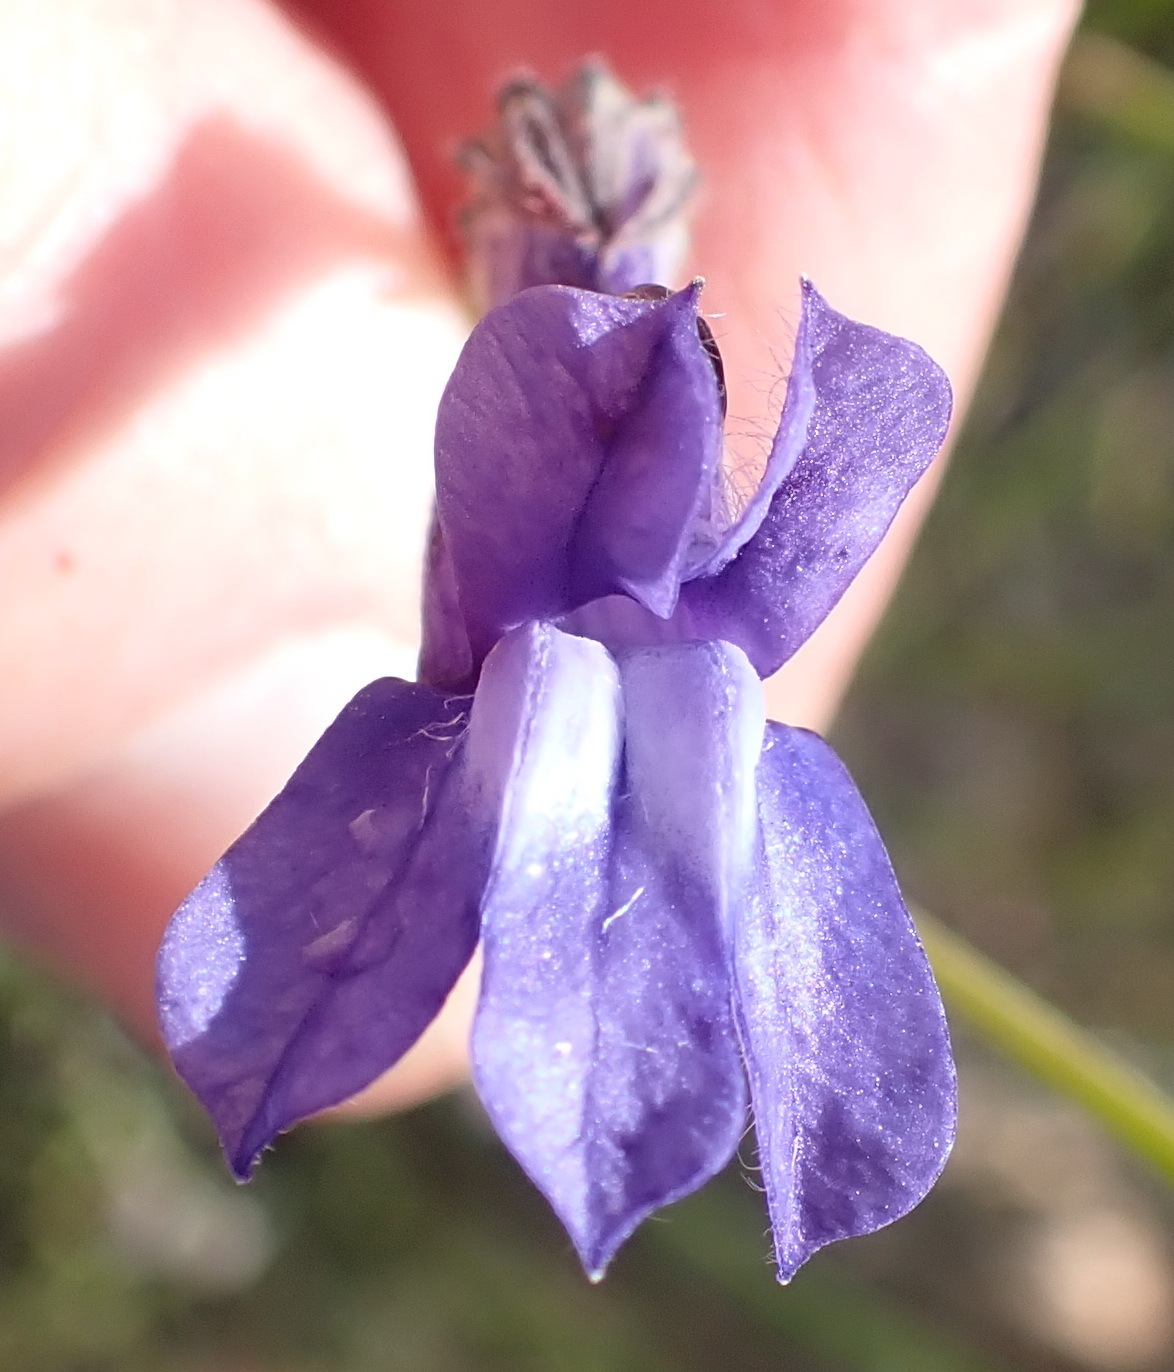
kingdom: Plantae
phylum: Tracheophyta
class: Magnoliopsida
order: Asterales
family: Campanulaceae
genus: Lobelia
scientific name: Lobelia linearis
